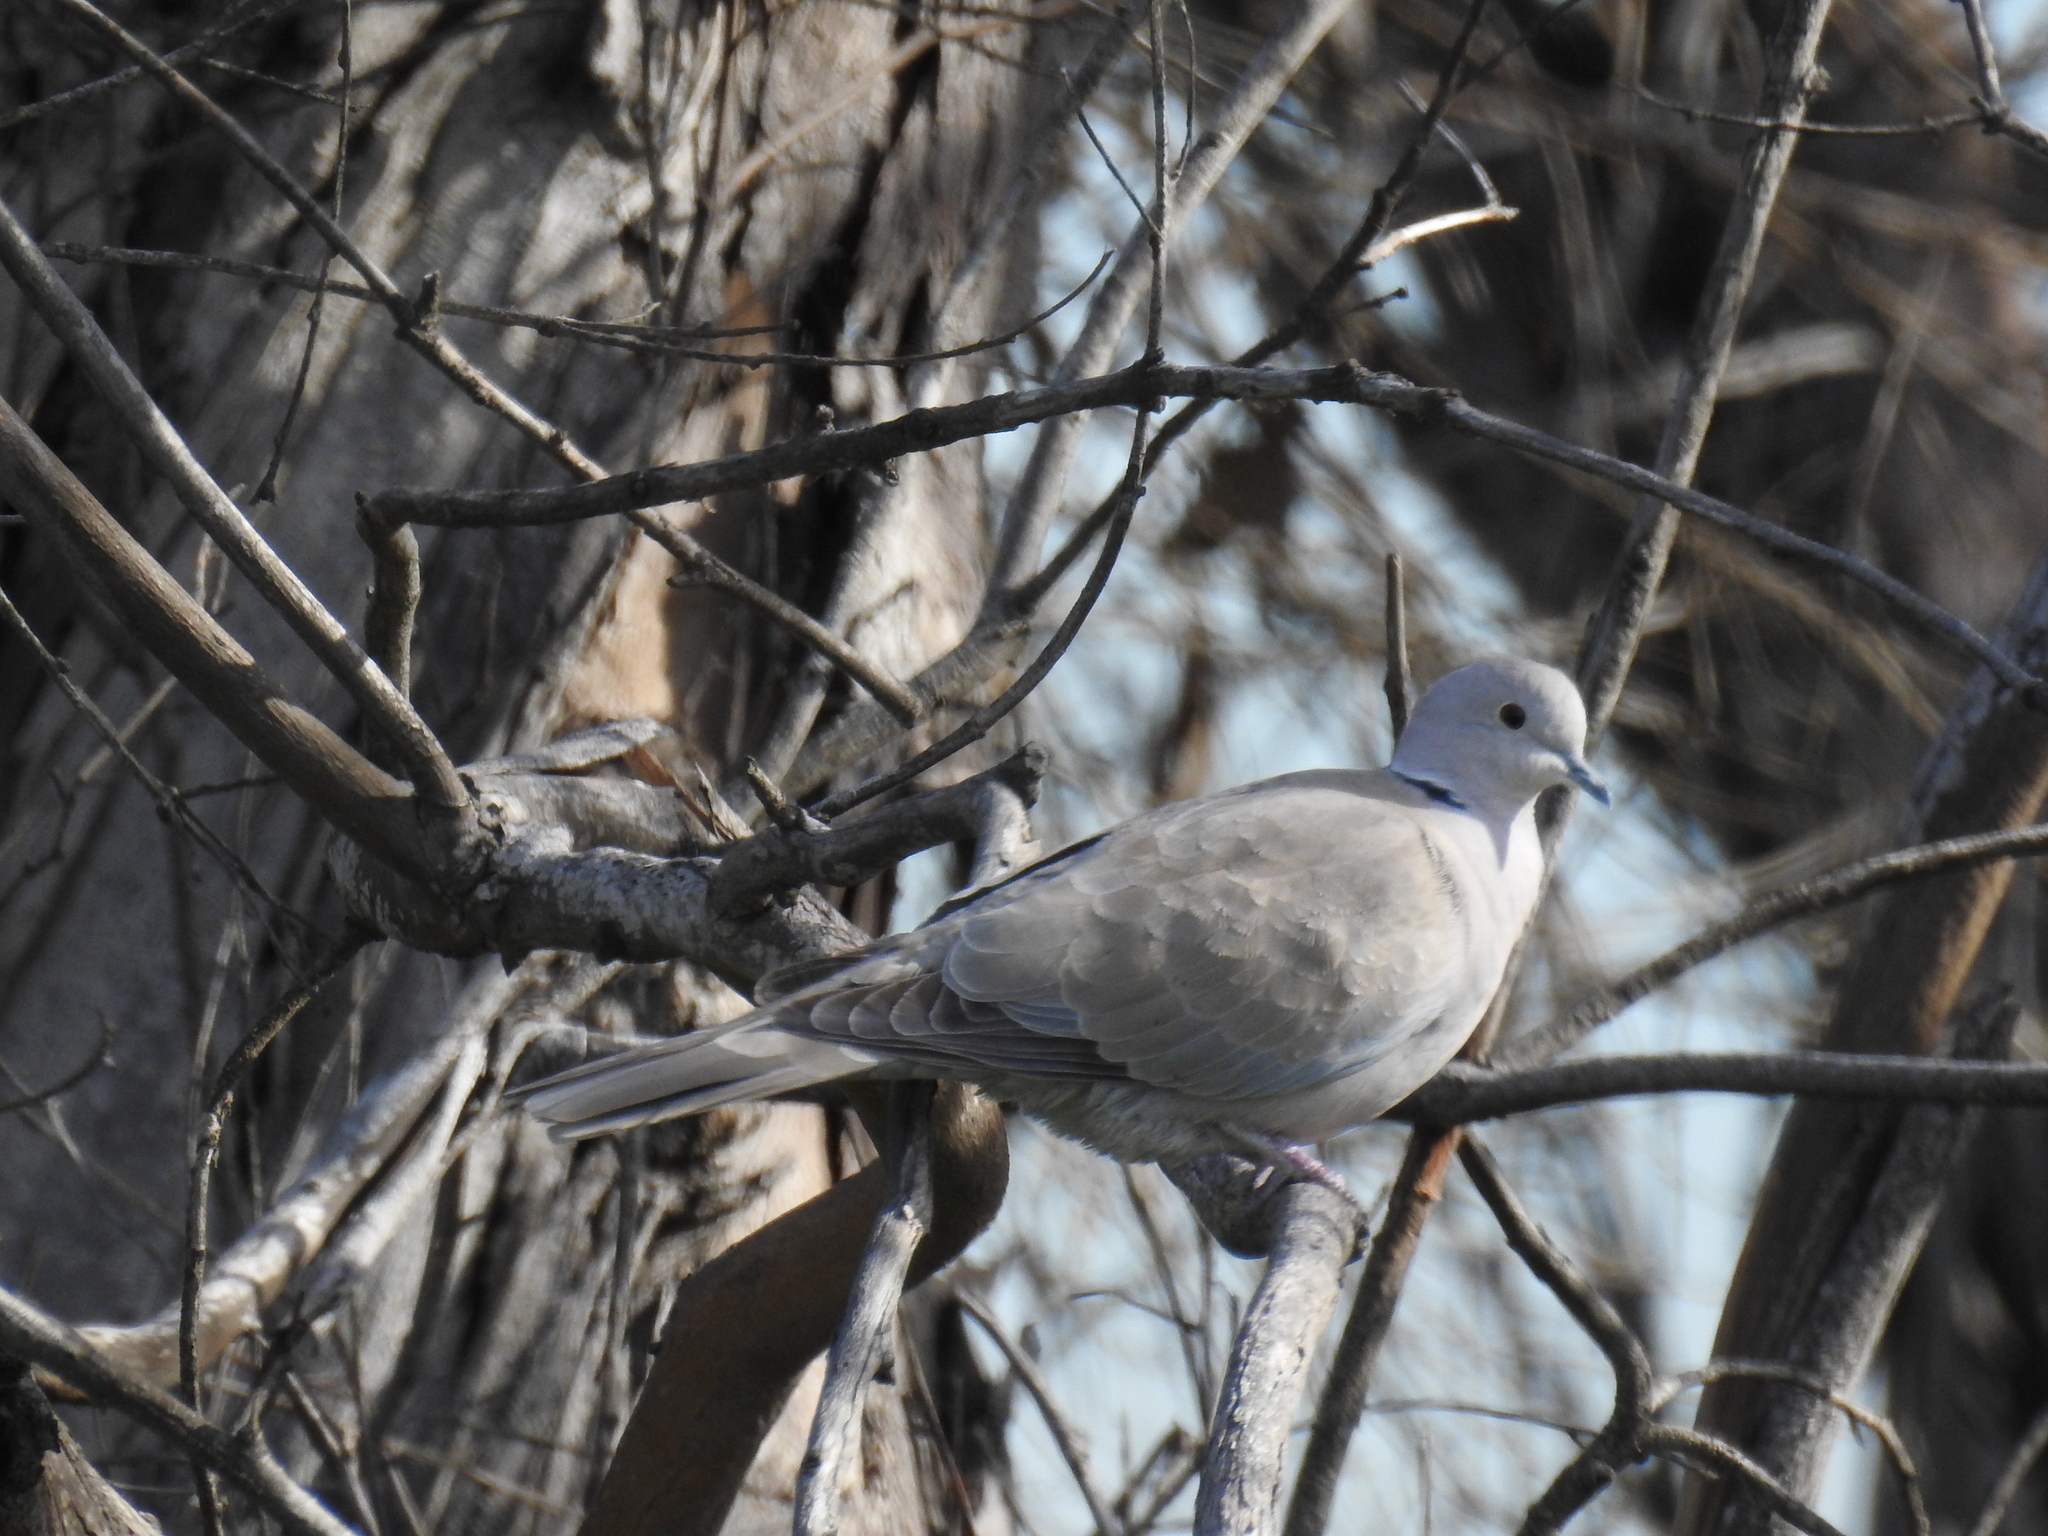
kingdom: Animalia
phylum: Chordata
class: Aves
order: Columbiformes
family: Columbidae
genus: Streptopelia
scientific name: Streptopelia decaocto
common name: Eurasian collared dove
